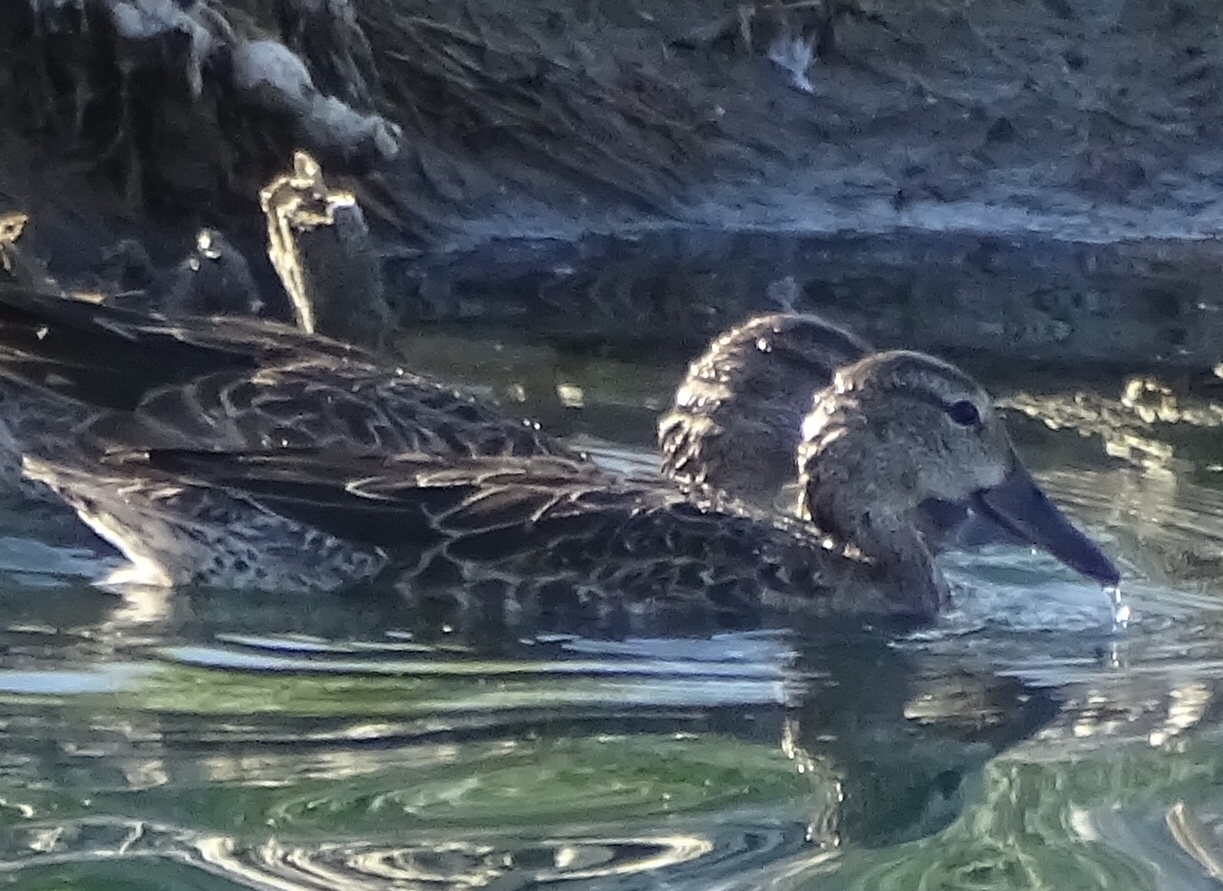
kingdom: Animalia
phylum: Chordata
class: Aves
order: Anseriformes
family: Anatidae
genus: Spatula
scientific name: Spatula discors
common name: Blue-winged teal
